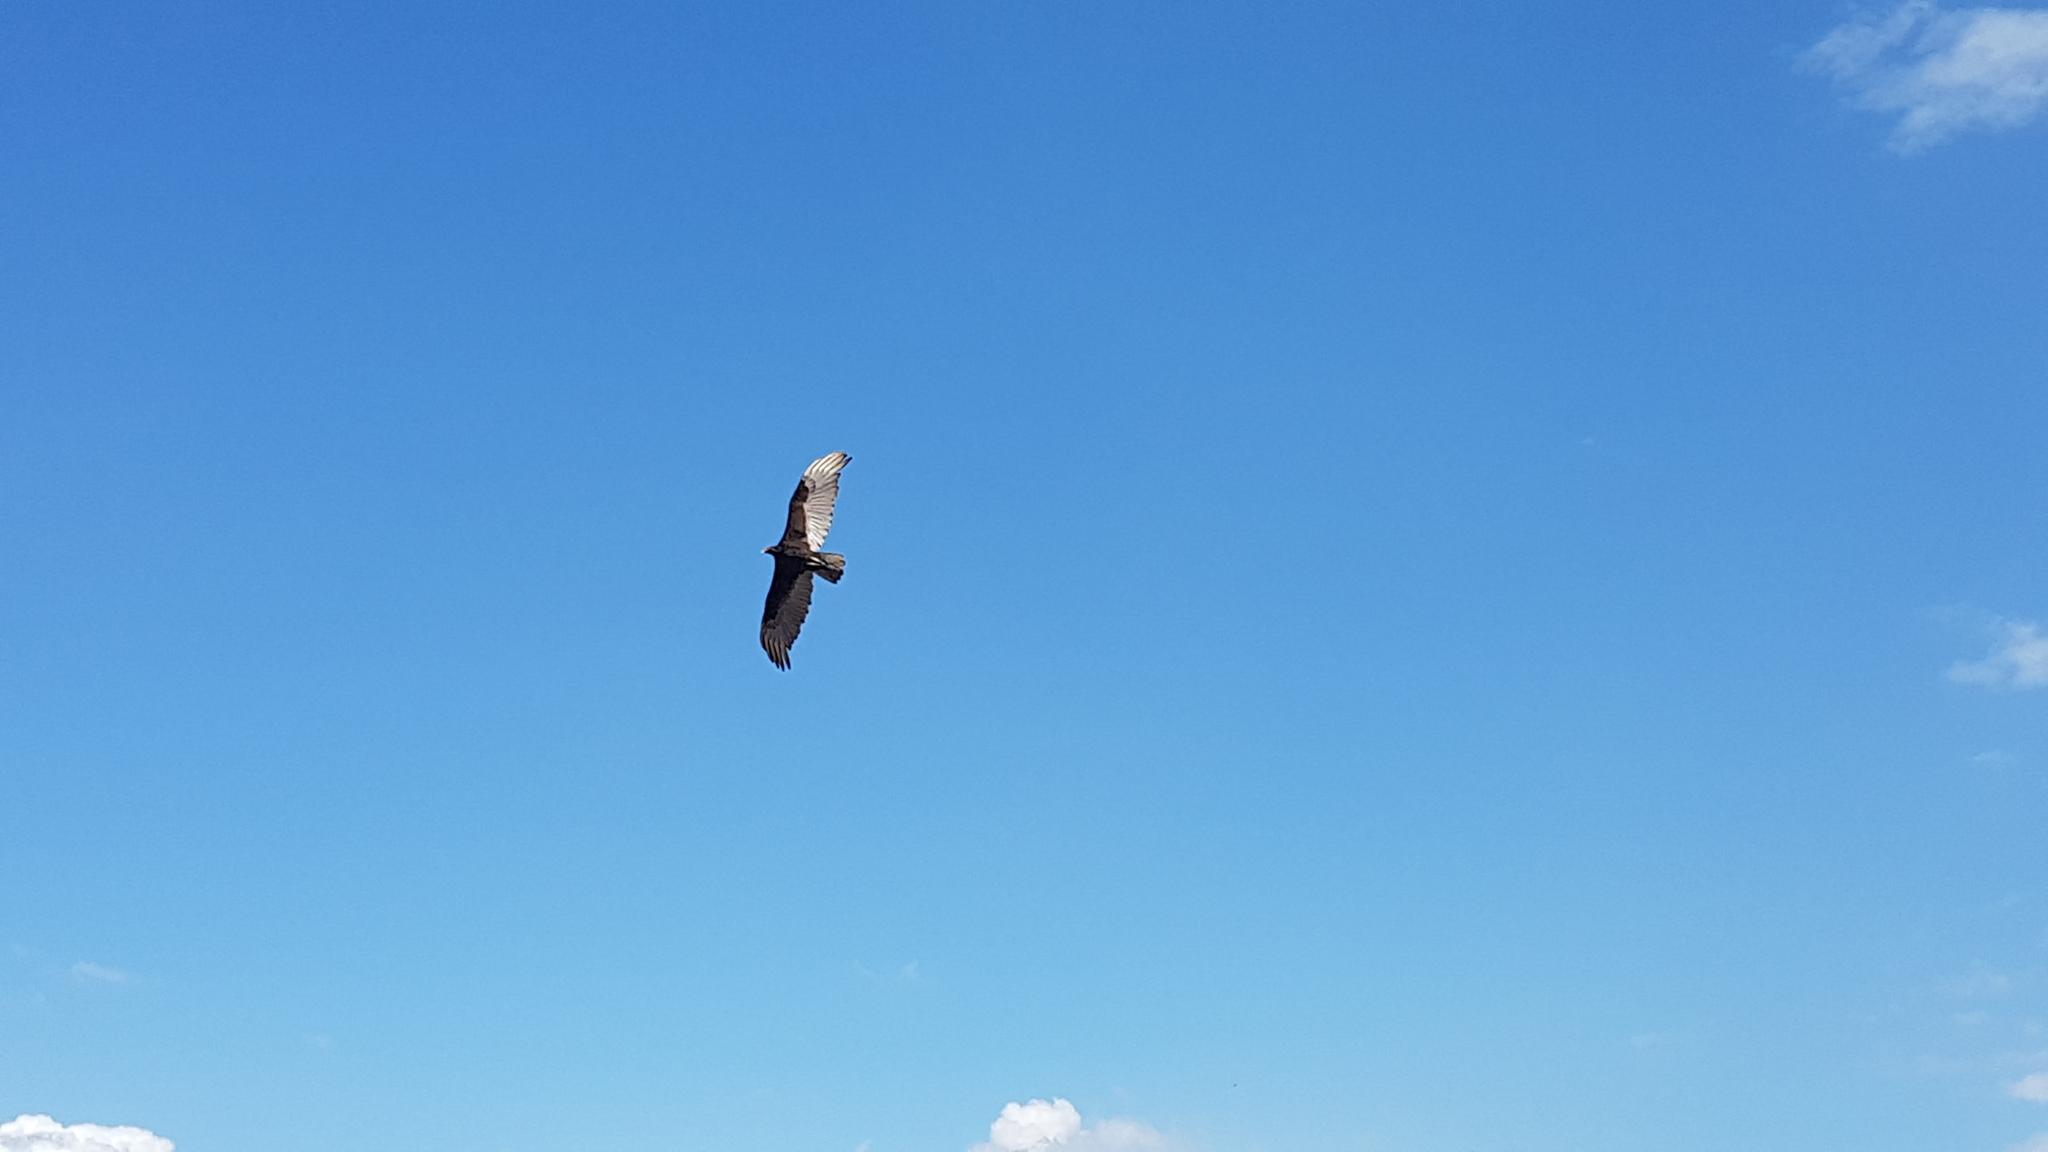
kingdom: Animalia
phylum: Chordata
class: Aves
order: Accipitriformes
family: Cathartidae
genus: Cathartes
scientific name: Cathartes aura
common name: Turkey vulture
